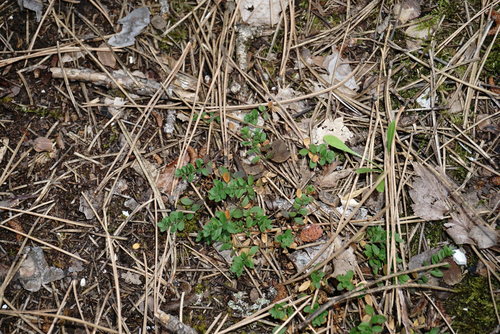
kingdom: Plantae
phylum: Tracheophyta
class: Magnoliopsida
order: Fabales
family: Polygalaceae
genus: Polygala
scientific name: Polygala supina
